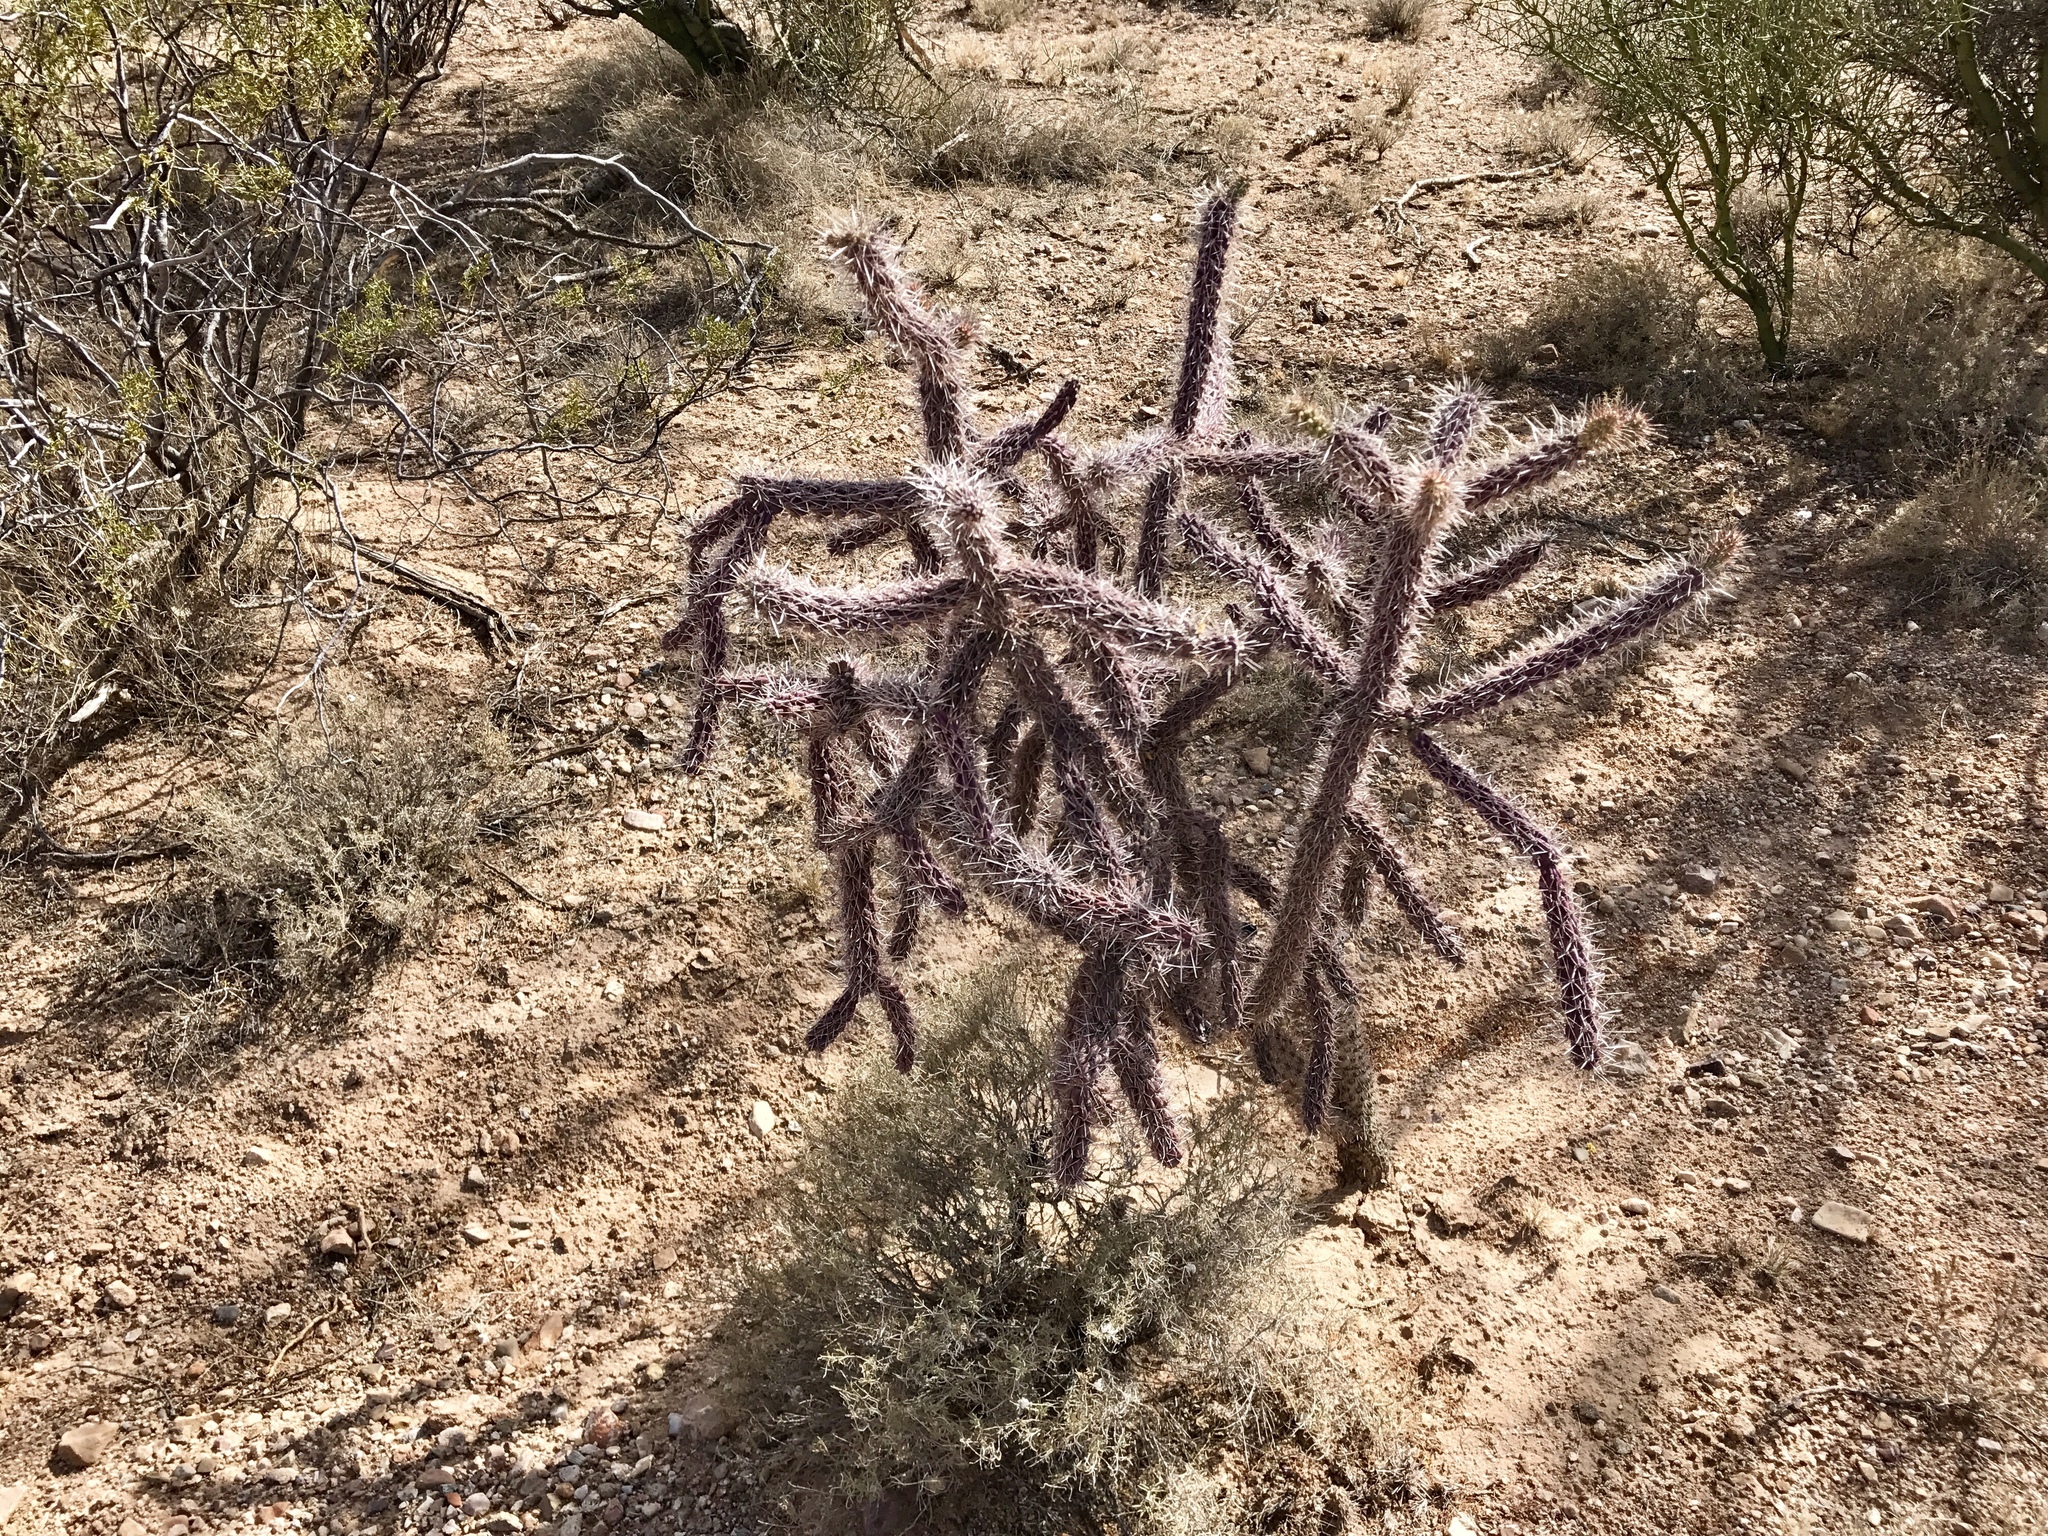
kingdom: Plantae
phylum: Tracheophyta
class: Magnoliopsida
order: Caryophyllales
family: Cactaceae
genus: Cylindropuntia
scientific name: Cylindropuntia imbricata
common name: Candelabrum cactus
